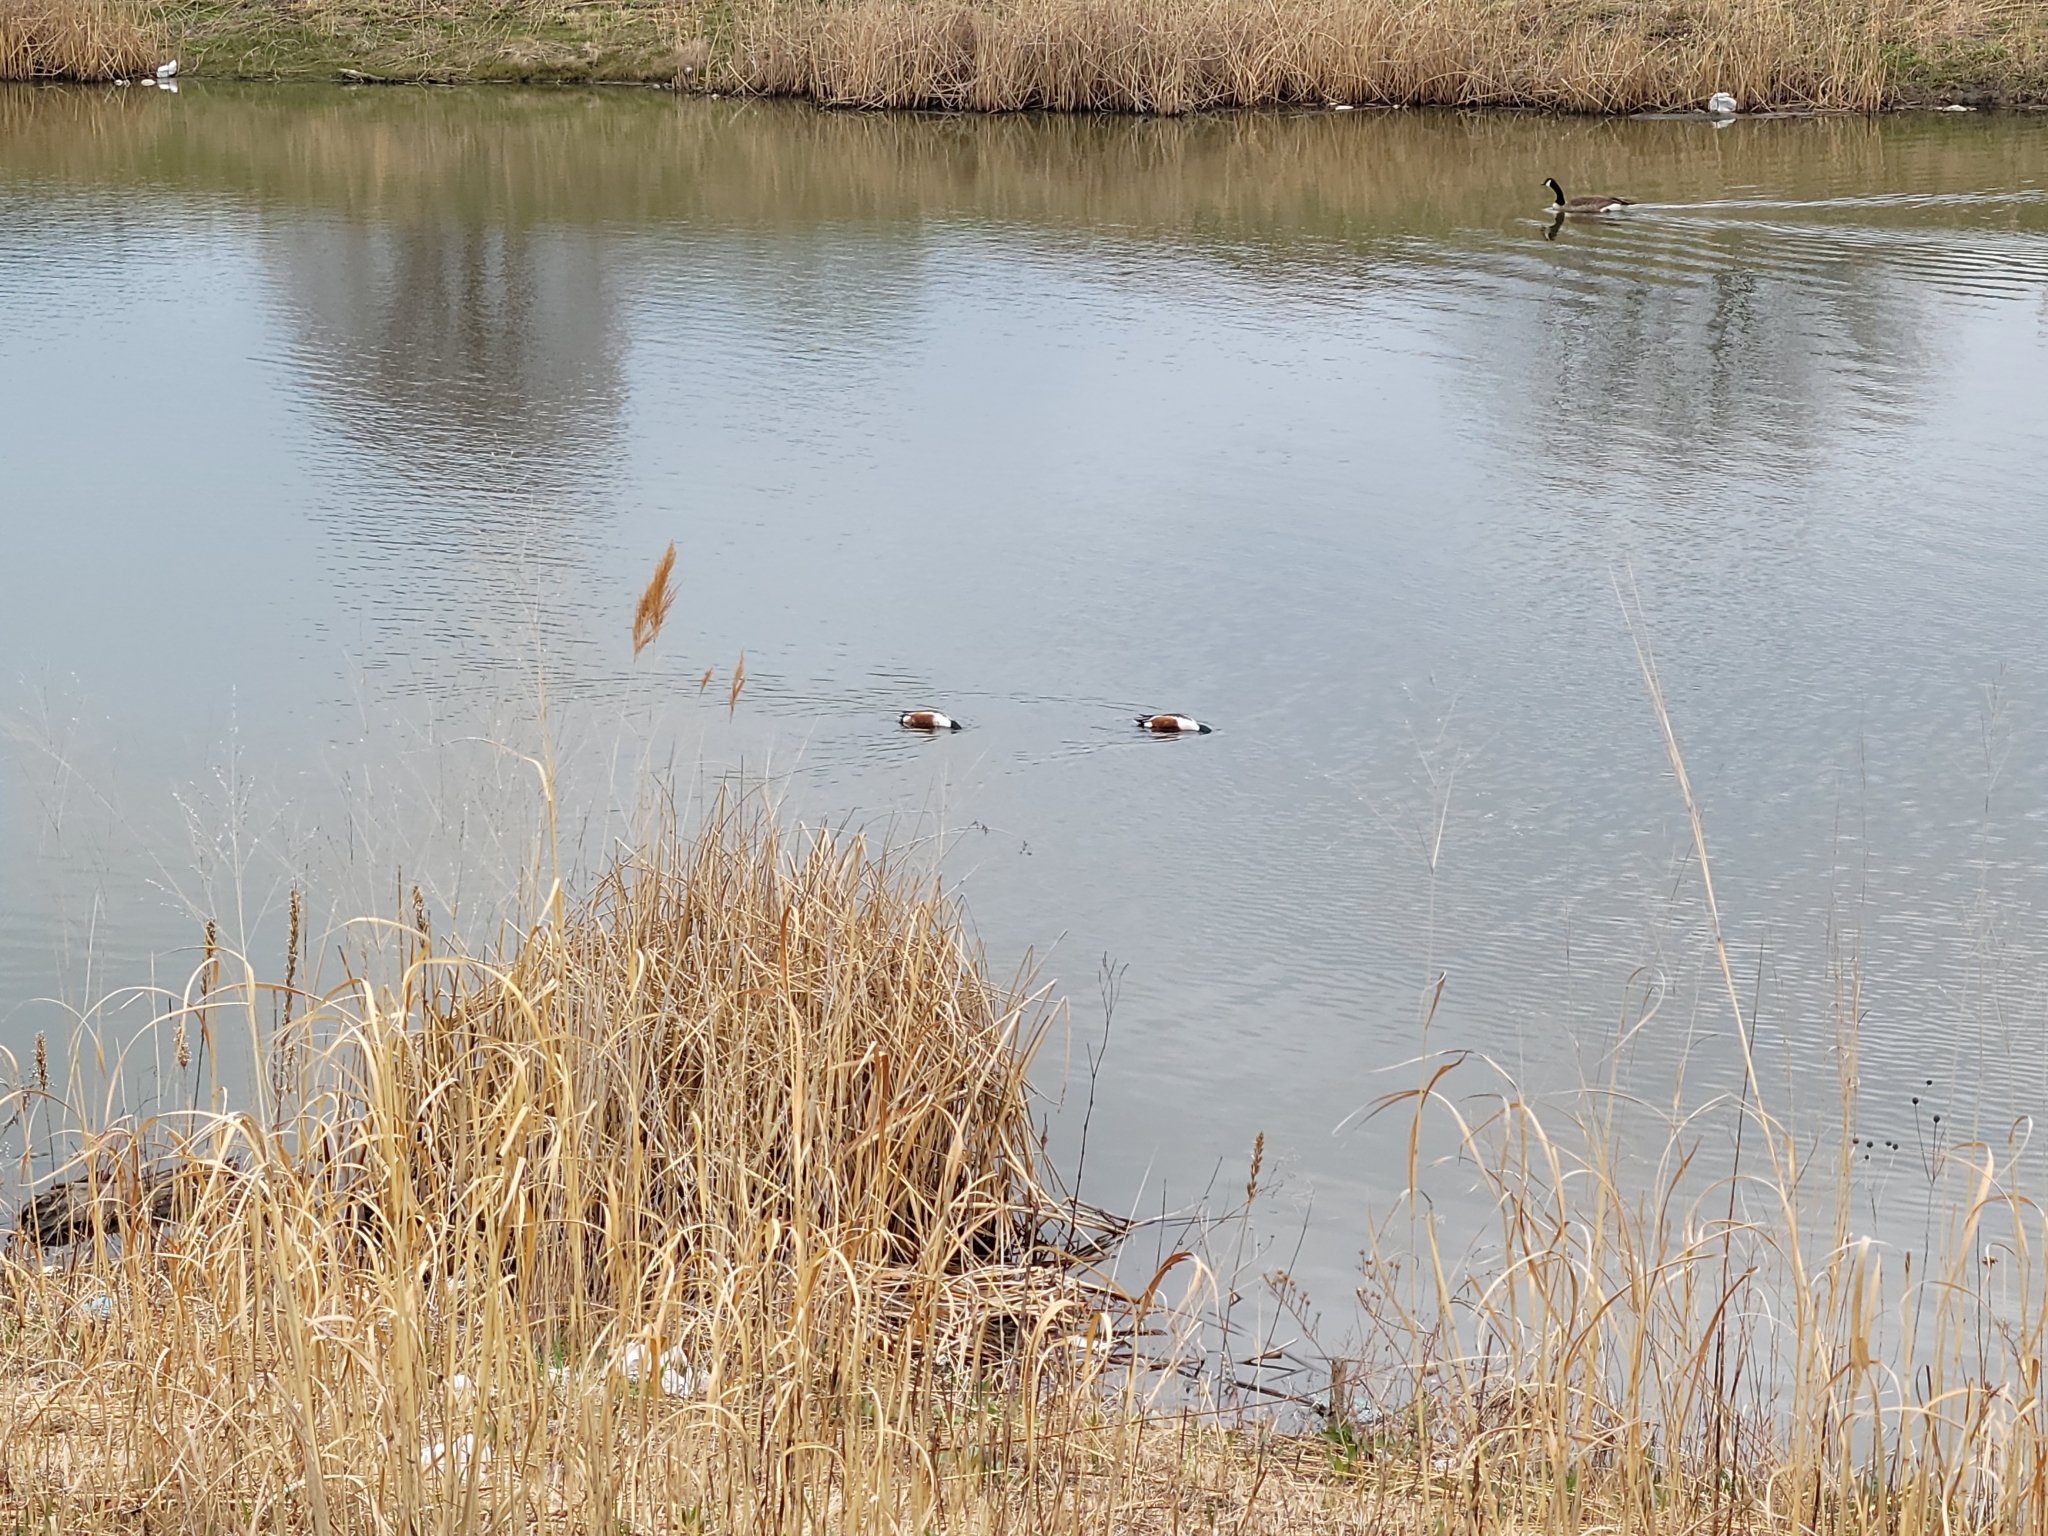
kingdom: Animalia
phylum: Chordata
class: Aves
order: Anseriformes
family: Anatidae
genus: Spatula
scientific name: Spatula clypeata
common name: Northern shoveler
